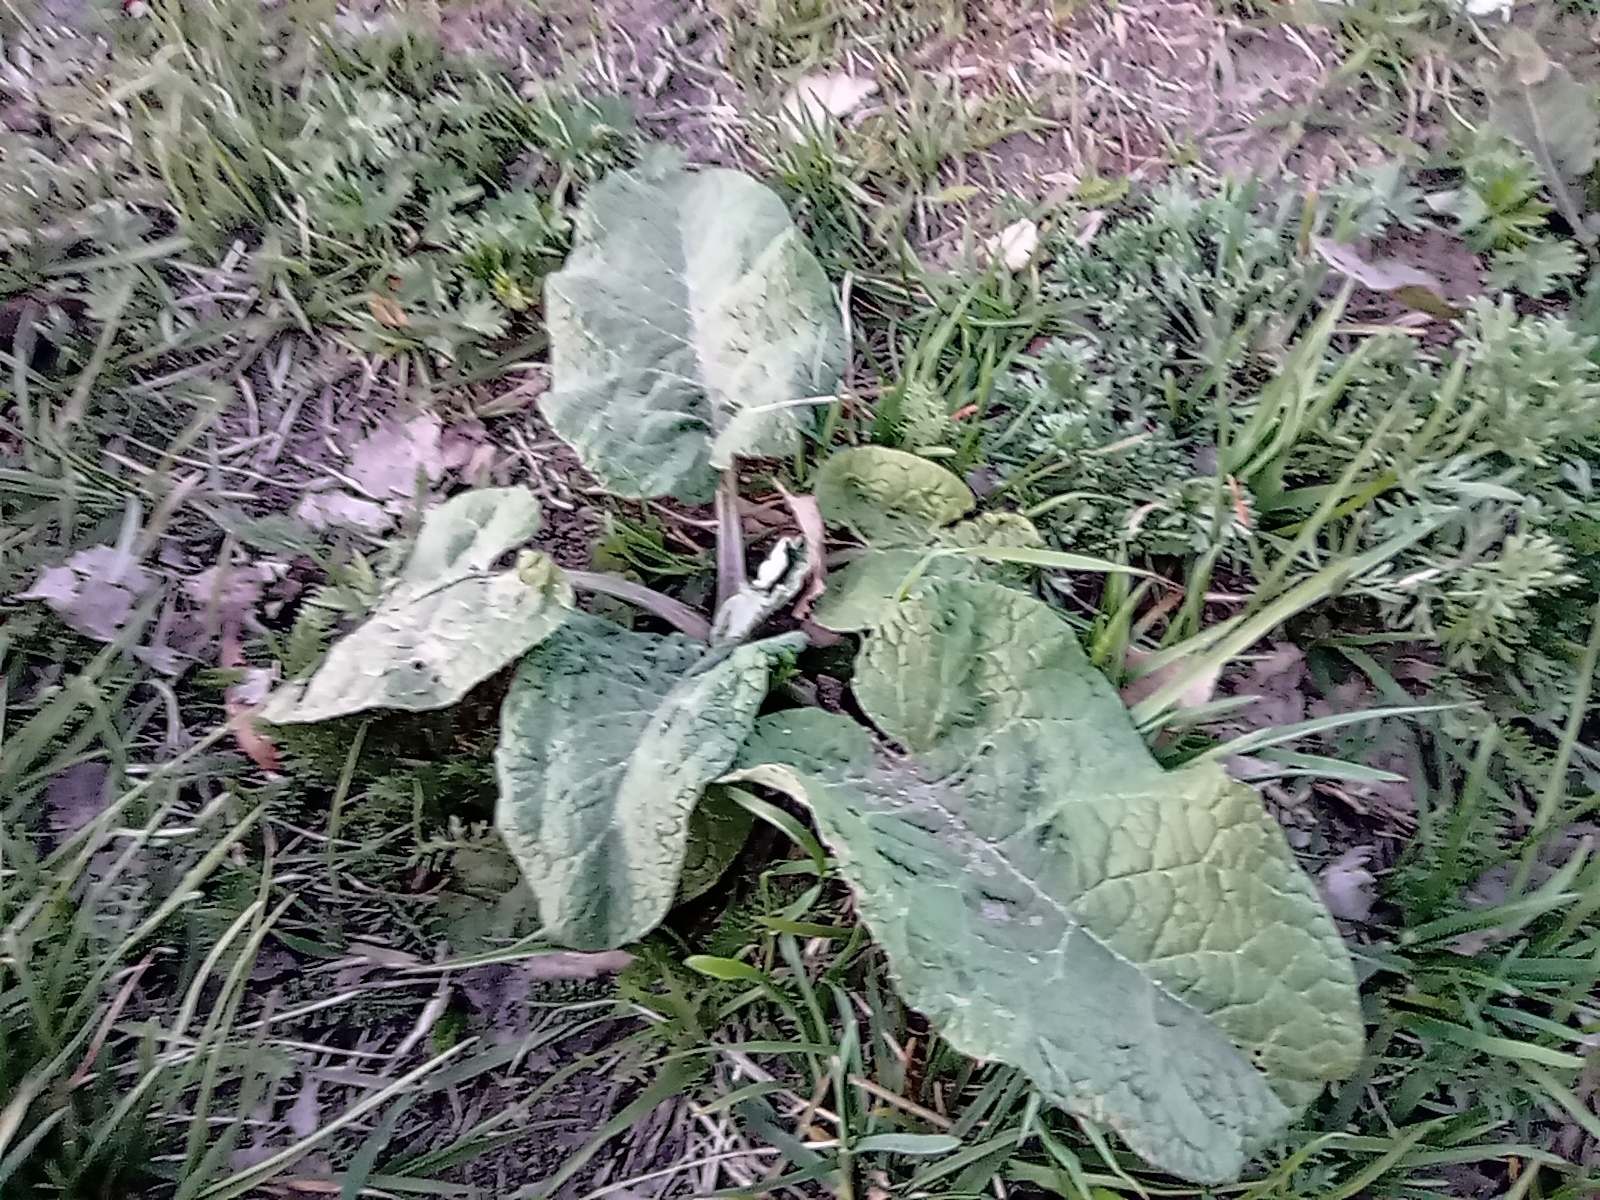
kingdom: Plantae
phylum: Tracheophyta
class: Magnoliopsida
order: Asterales
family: Asteraceae
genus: Arctium
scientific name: Arctium
